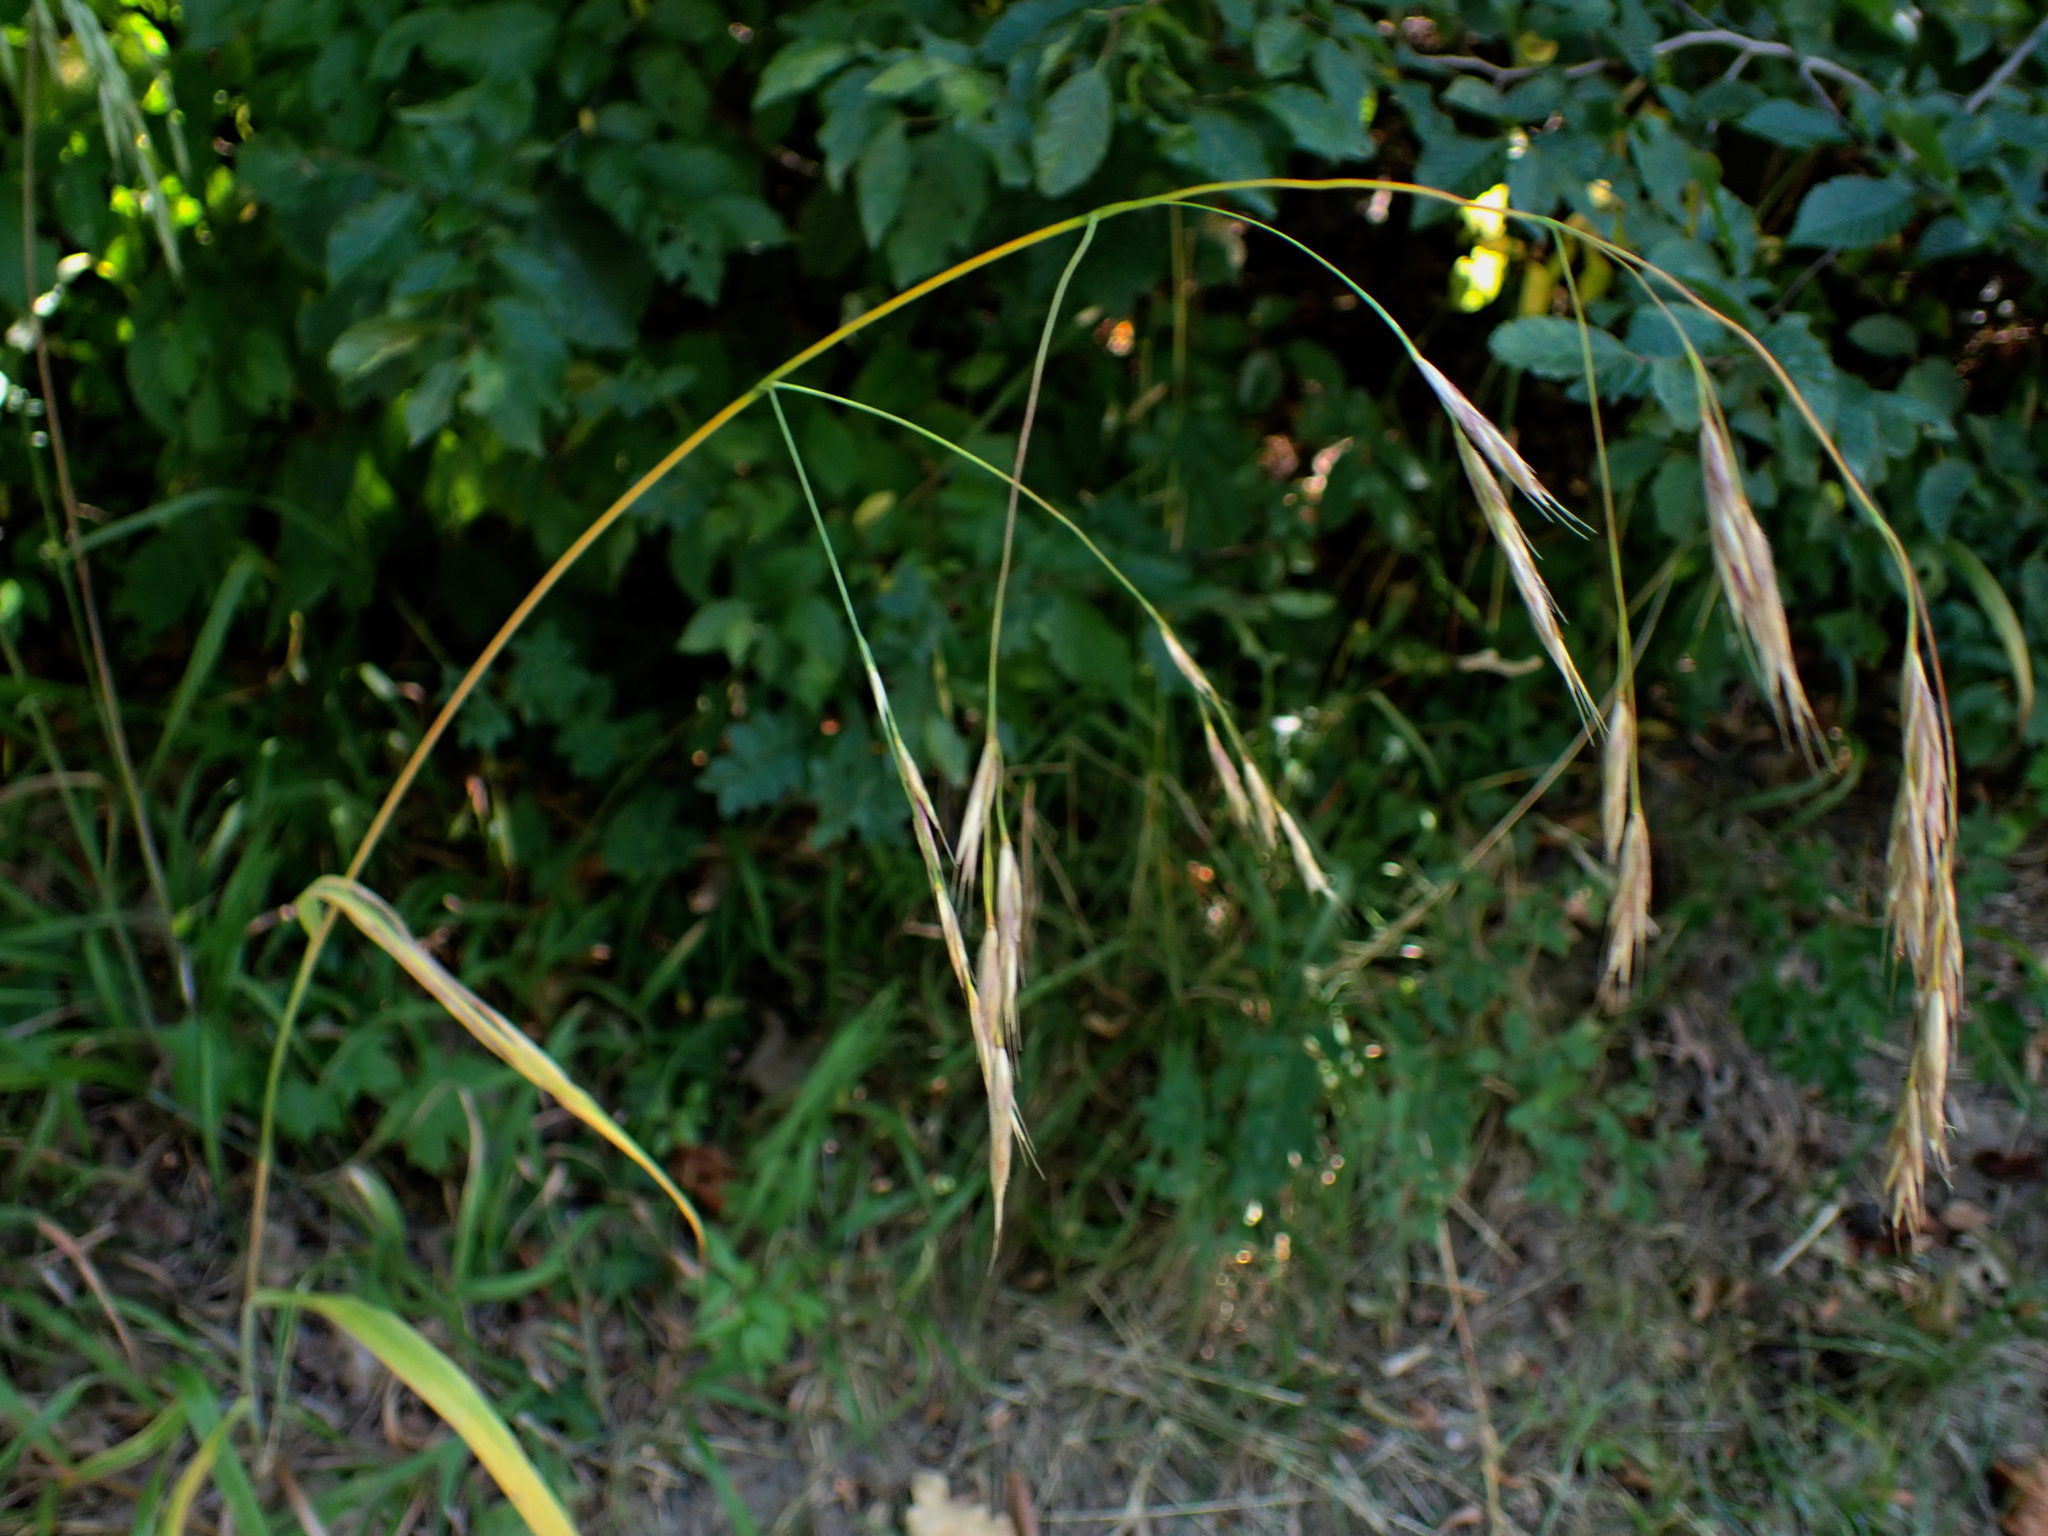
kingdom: Plantae
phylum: Tracheophyta
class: Liliopsida
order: Poales
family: Poaceae
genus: Bromus
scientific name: Bromus ramosus
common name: Hairy brome
